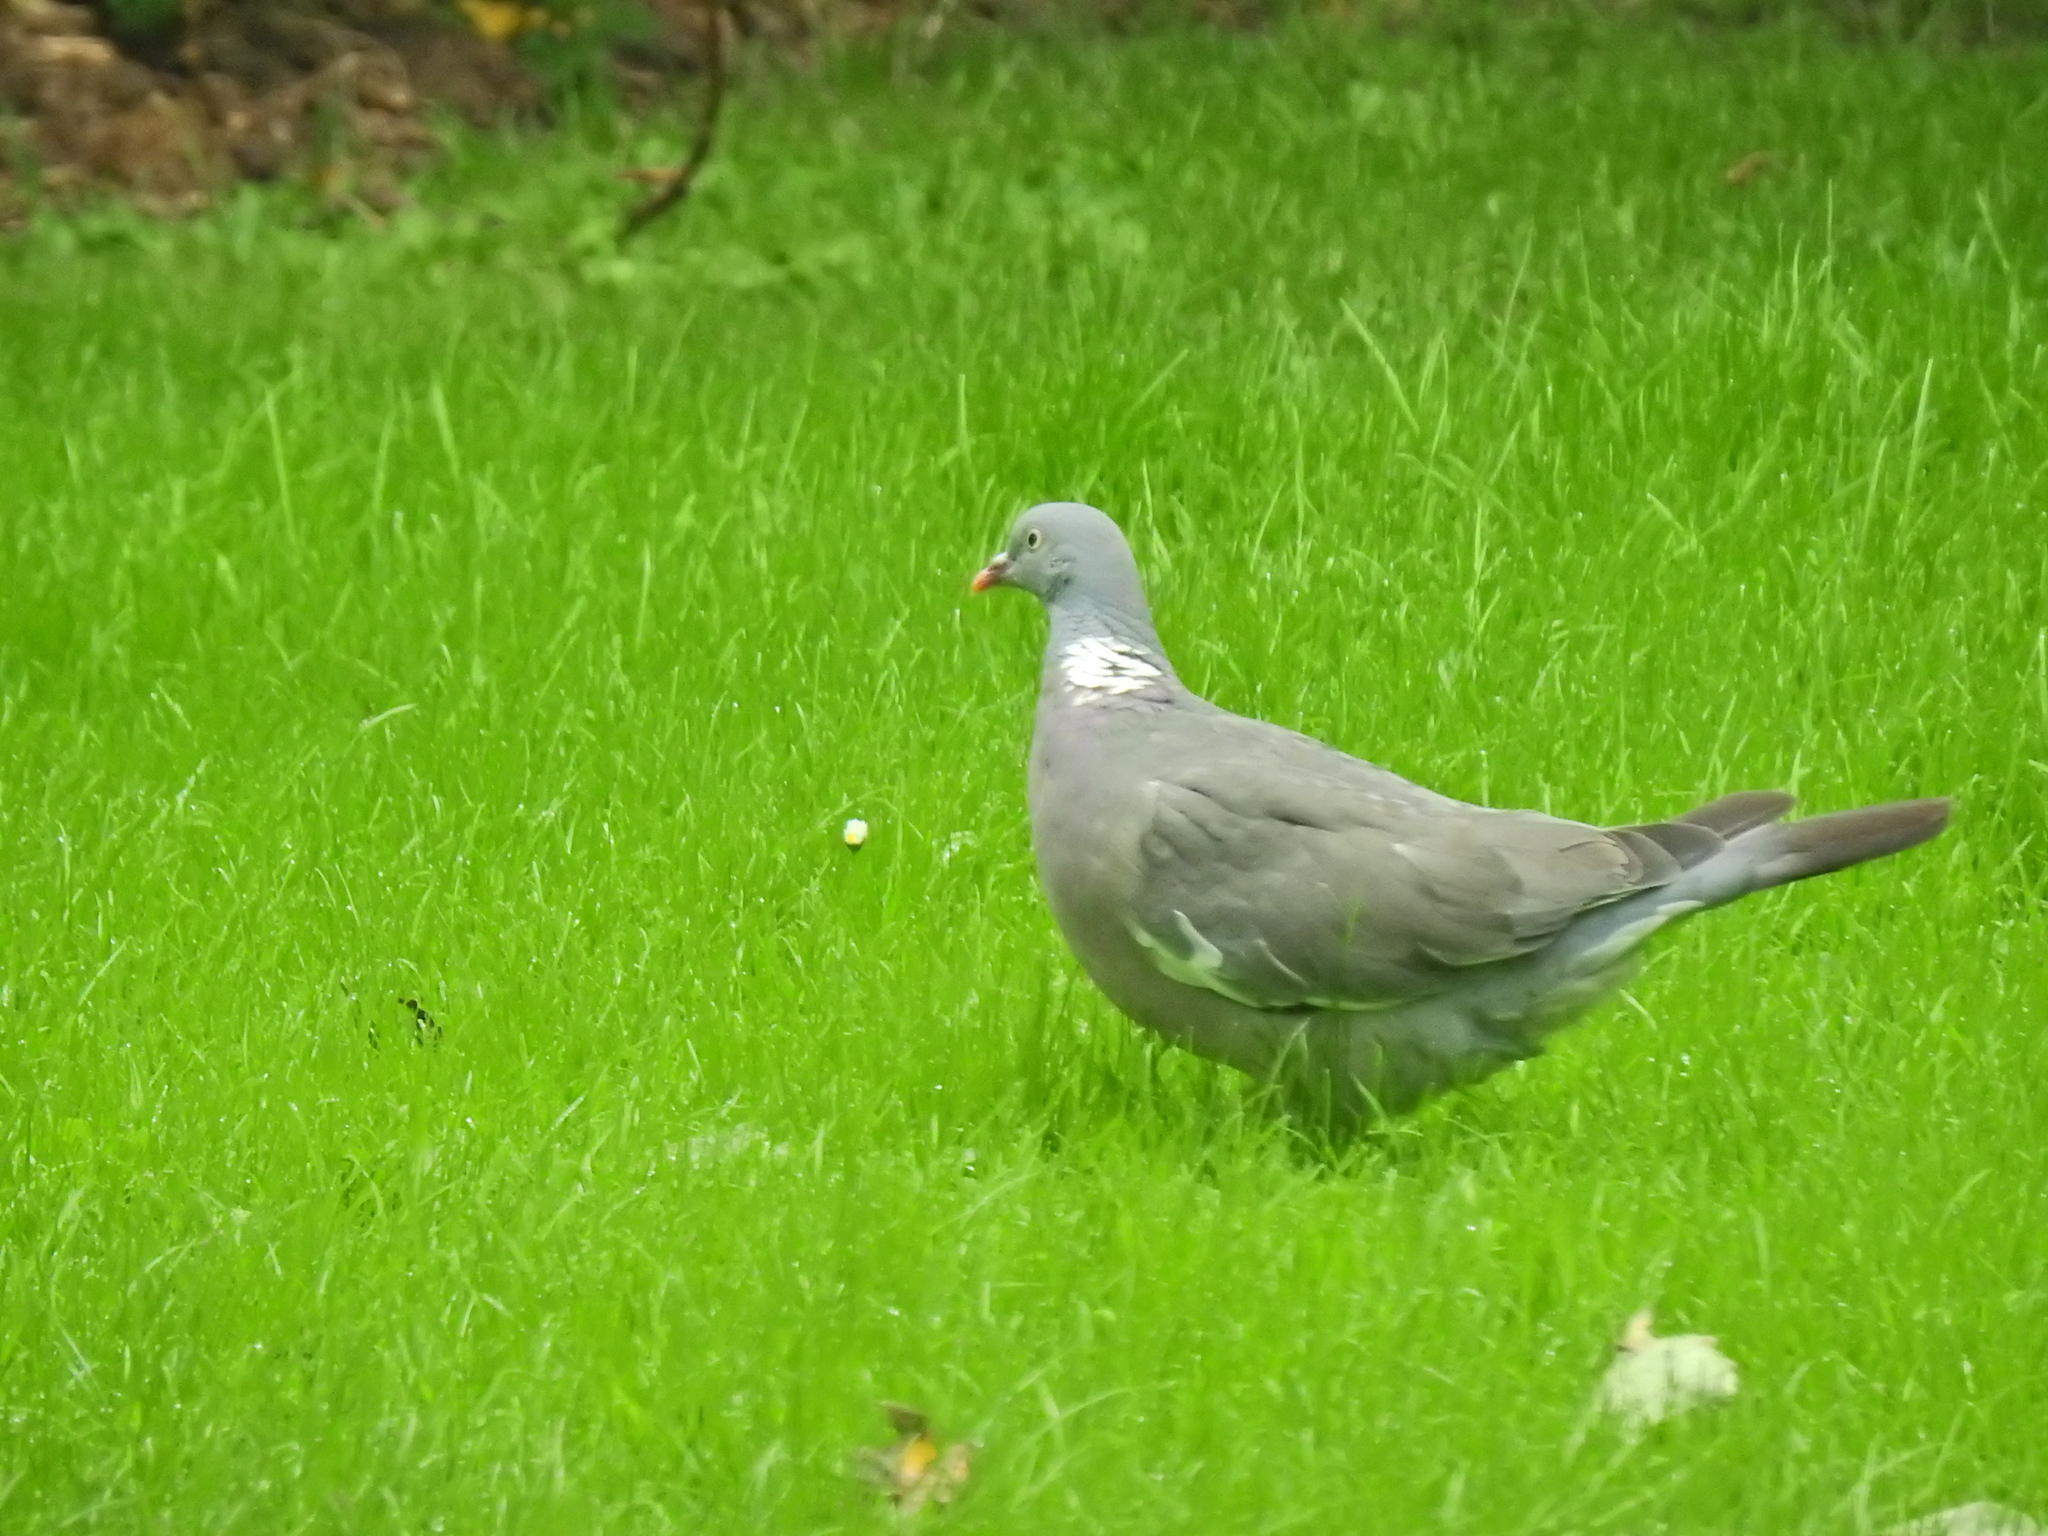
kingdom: Animalia
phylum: Chordata
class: Aves
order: Columbiformes
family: Columbidae
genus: Columba
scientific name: Columba palumbus
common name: Common wood pigeon
